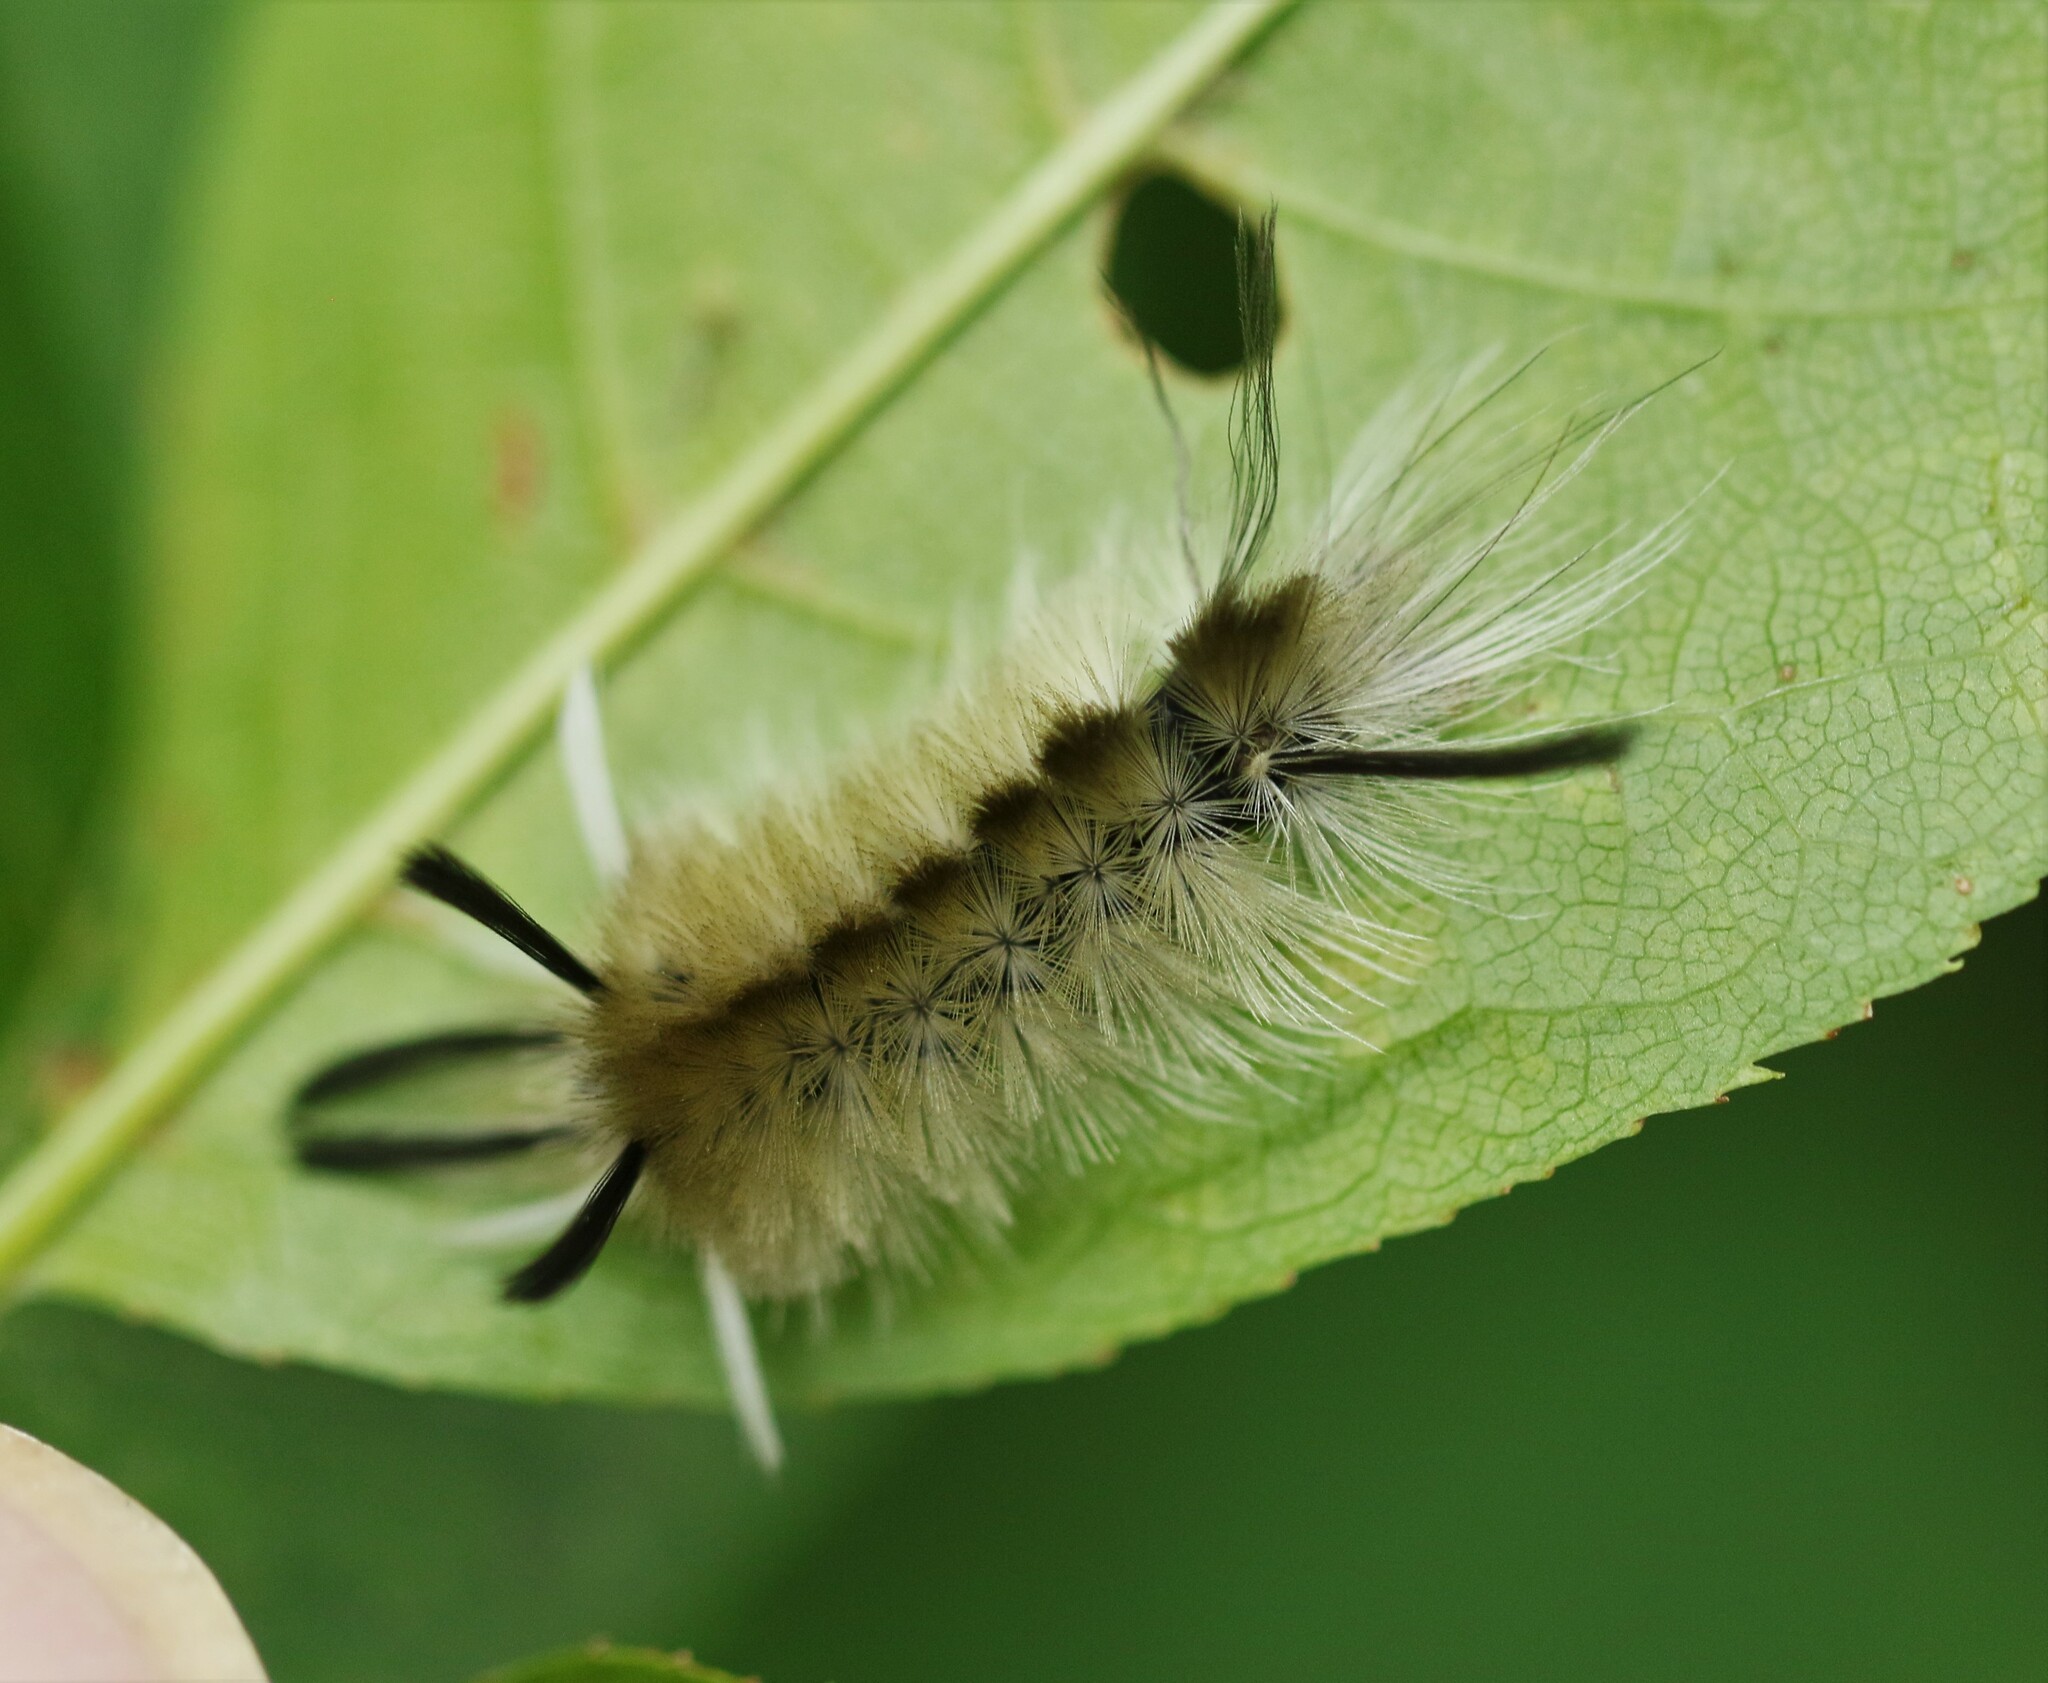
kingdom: Animalia
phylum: Arthropoda
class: Insecta
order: Lepidoptera
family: Erebidae
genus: Halysidota
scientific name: Halysidota tessellaris
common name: Banded tussock moth
